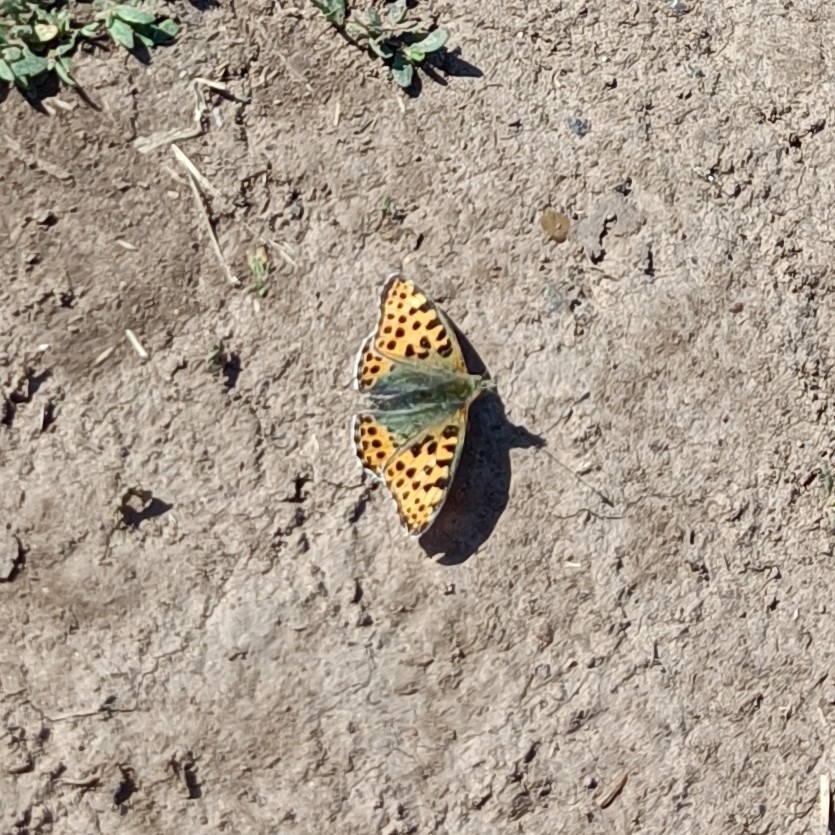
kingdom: Animalia
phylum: Arthropoda
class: Insecta
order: Lepidoptera
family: Nymphalidae
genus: Issoria
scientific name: Issoria lathonia
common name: Queen of spain fritillary
